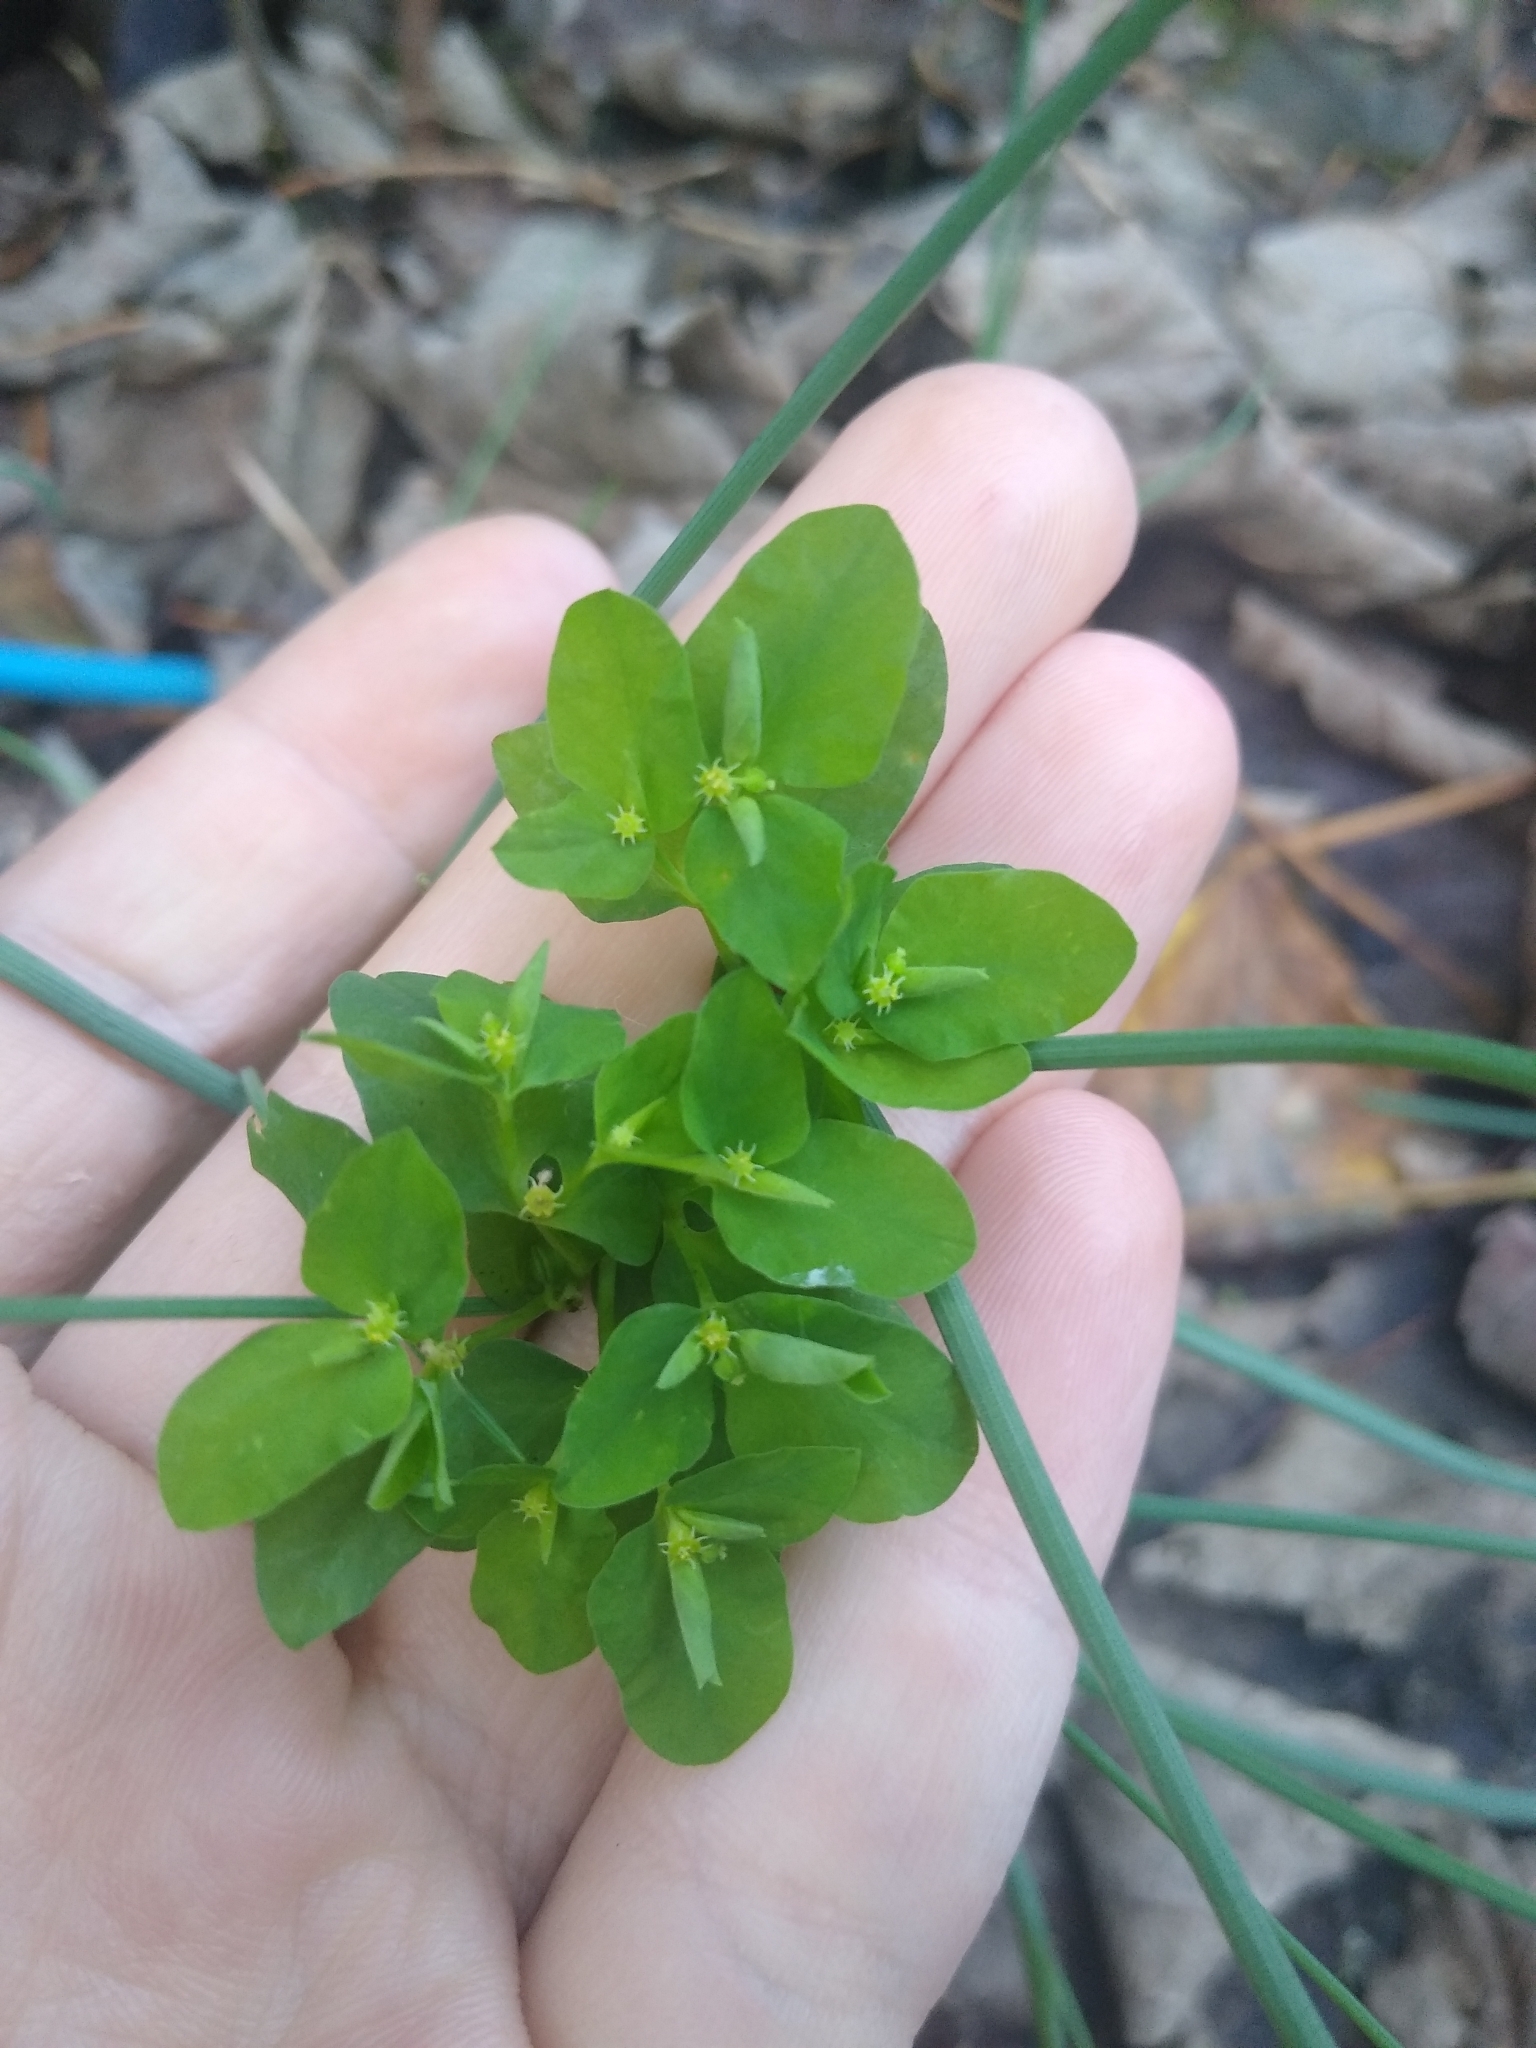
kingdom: Plantae
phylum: Tracheophyta
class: Magnoliopsida
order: Malpighiales
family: Euphorbiaceae
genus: Euphorbia
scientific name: Euphorbia peplus
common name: Petty spurge
